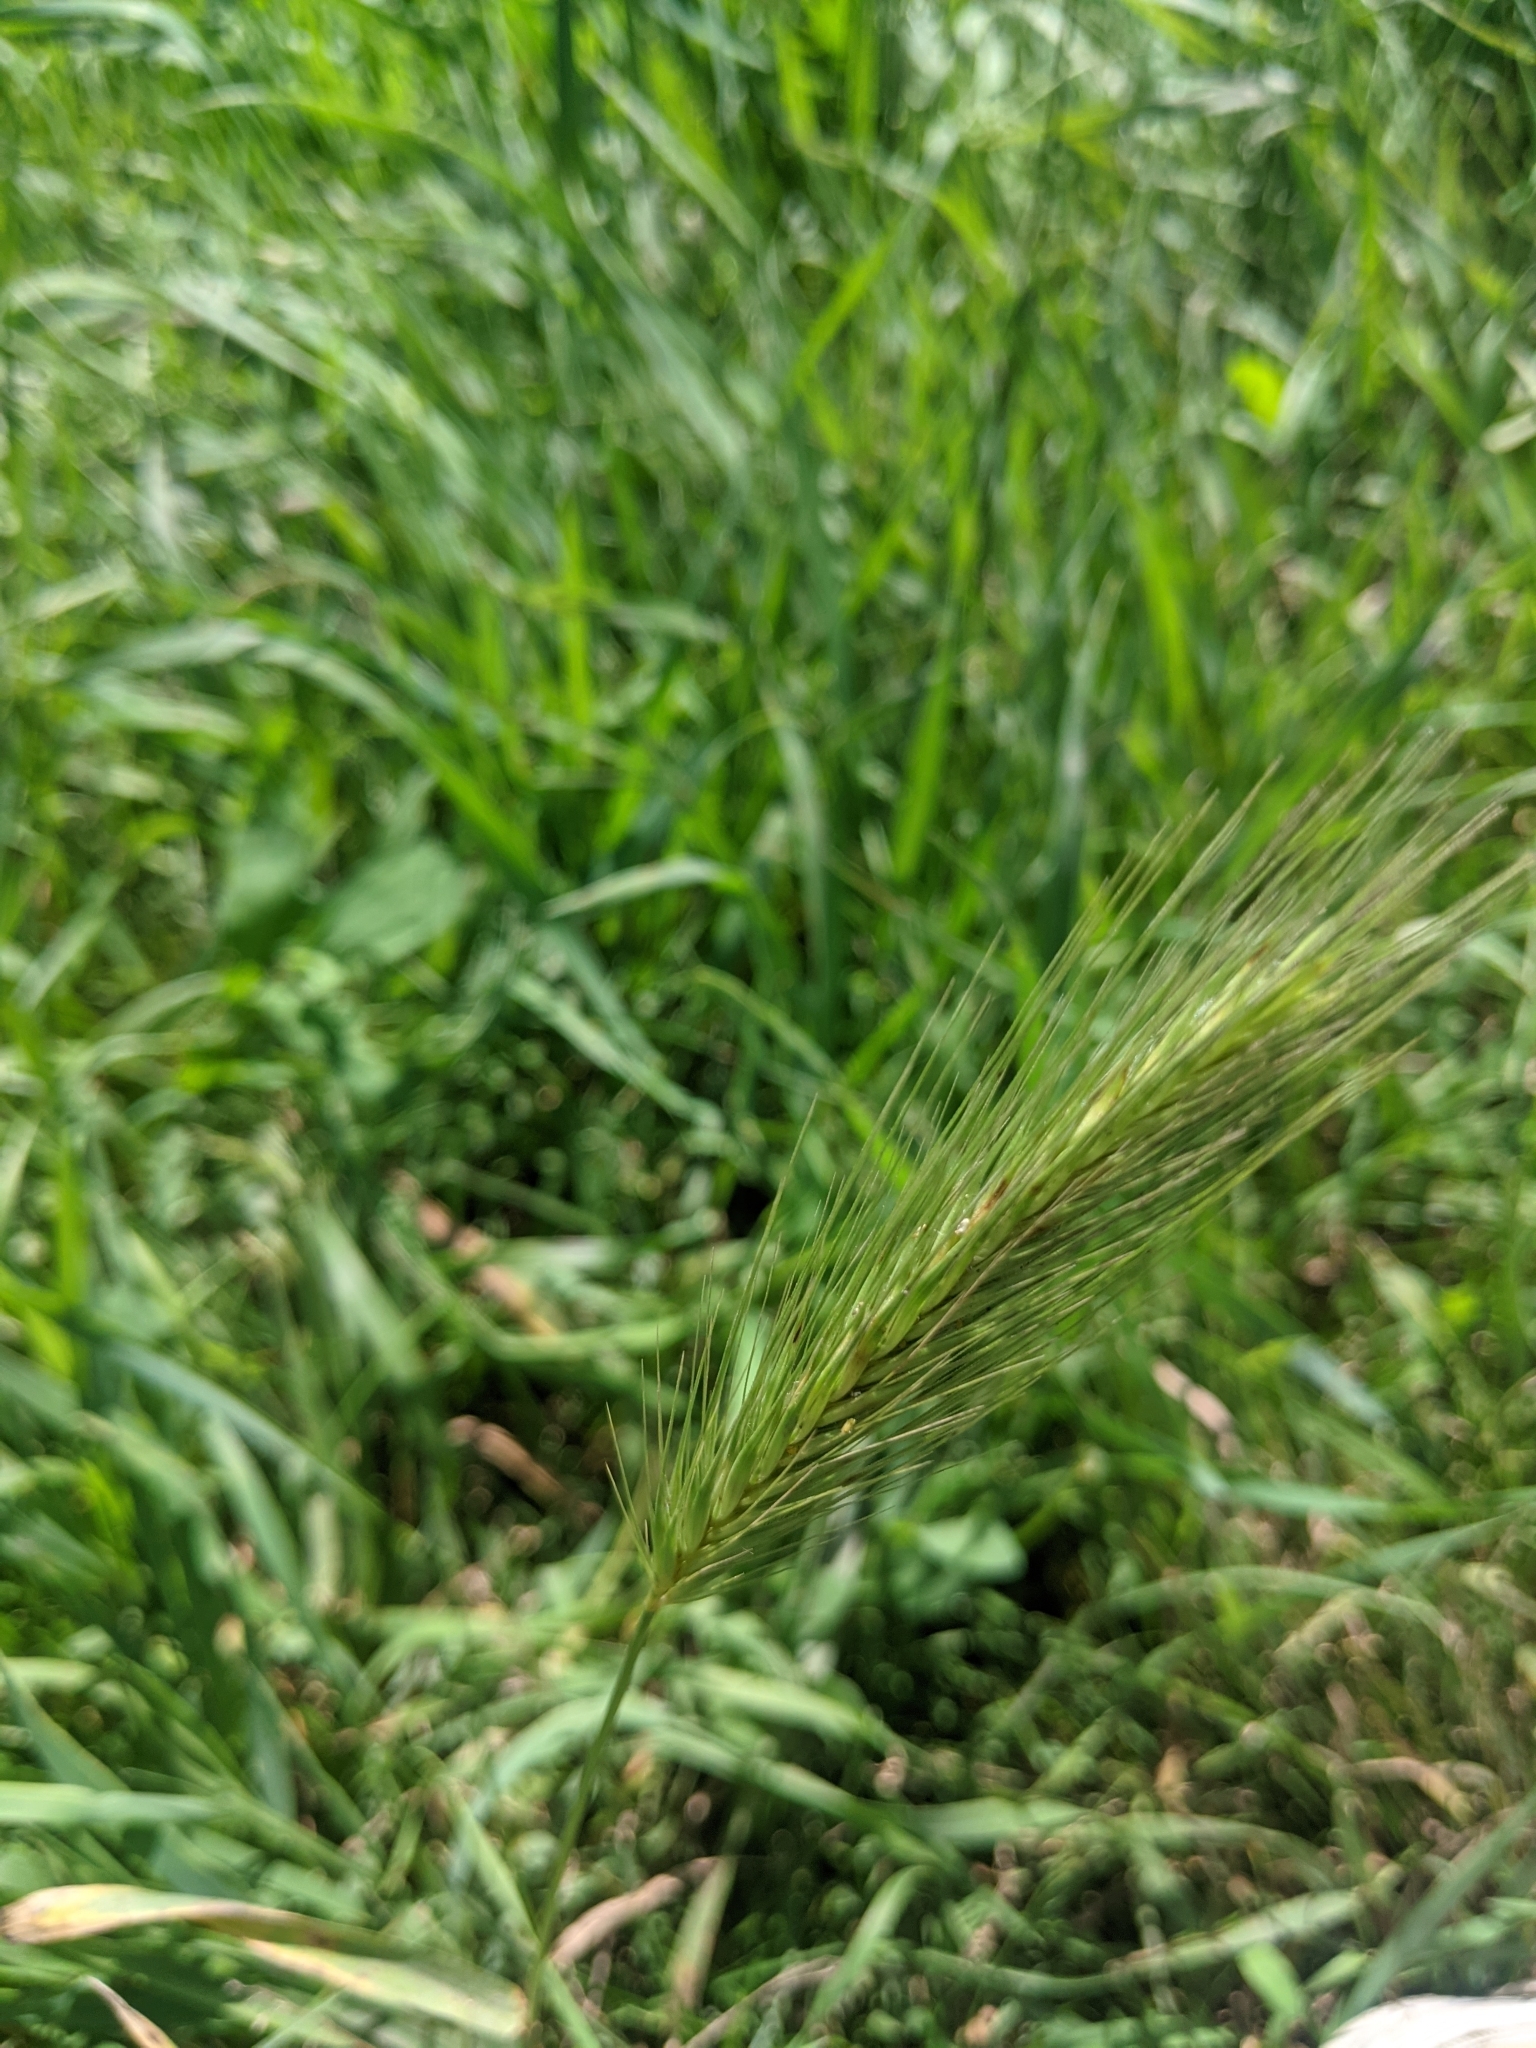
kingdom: Plantae
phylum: Tracheophyta
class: Liliopsida
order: Poales
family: Poaceae
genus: Hordeum
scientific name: Hordeum murinum
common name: Wall barley
